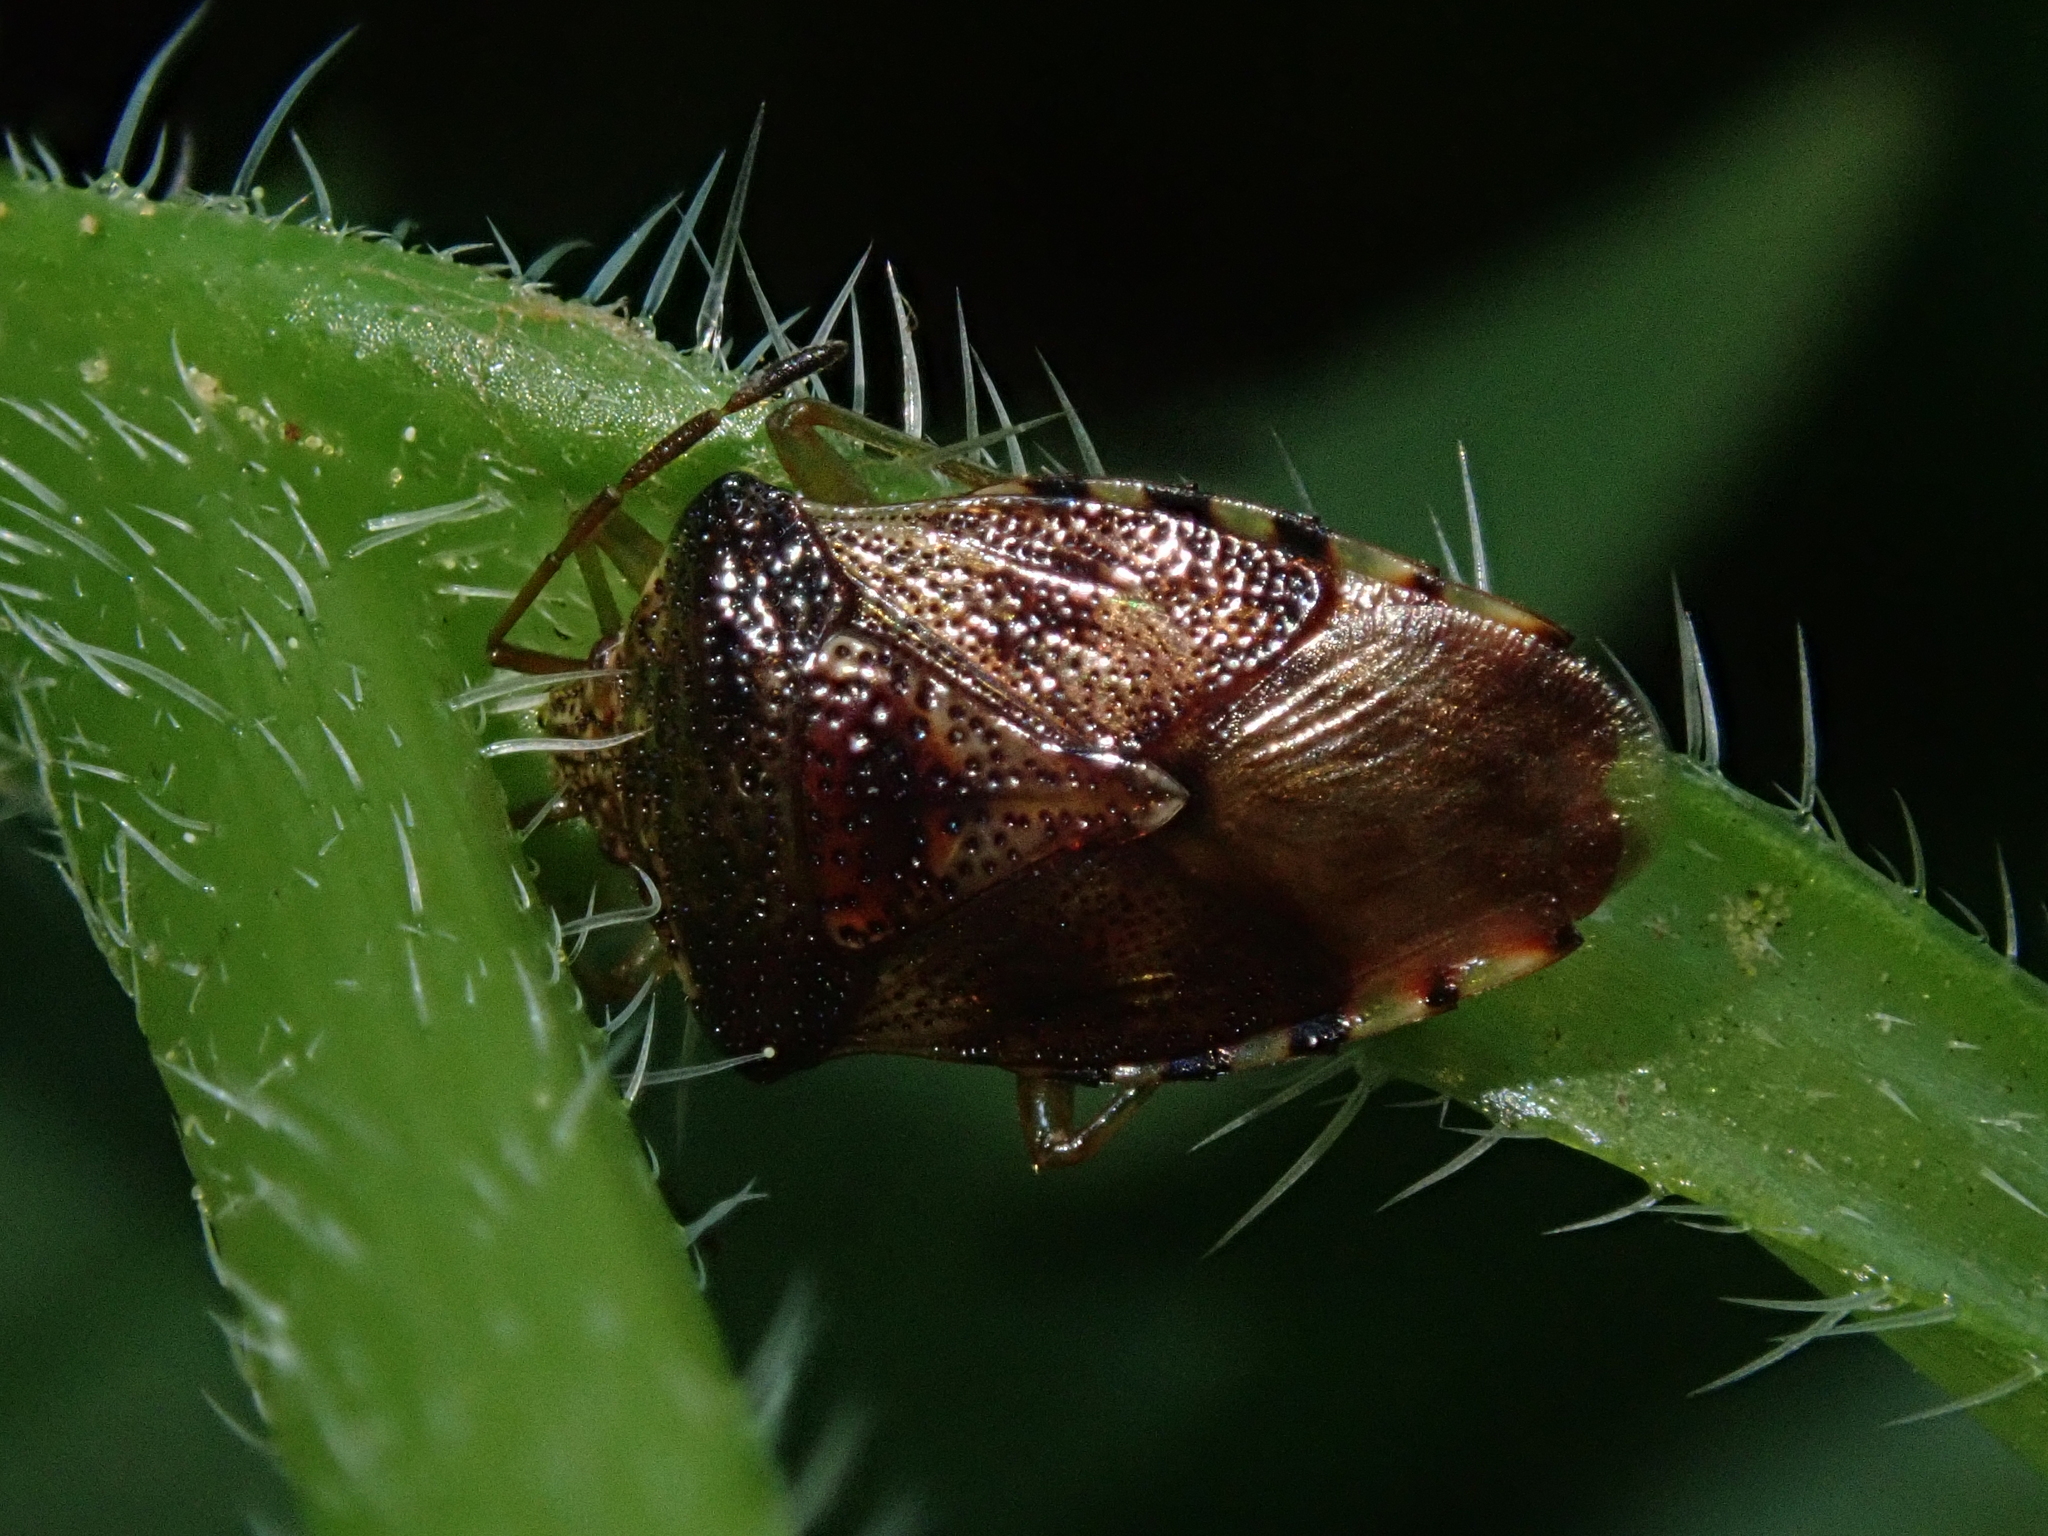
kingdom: Animalia
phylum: Arthropoda
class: Insecta
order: Hemiptera
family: Acanthosomatidae
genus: Elasmucha
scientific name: Elasmucha lateralis
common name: Shield bug
